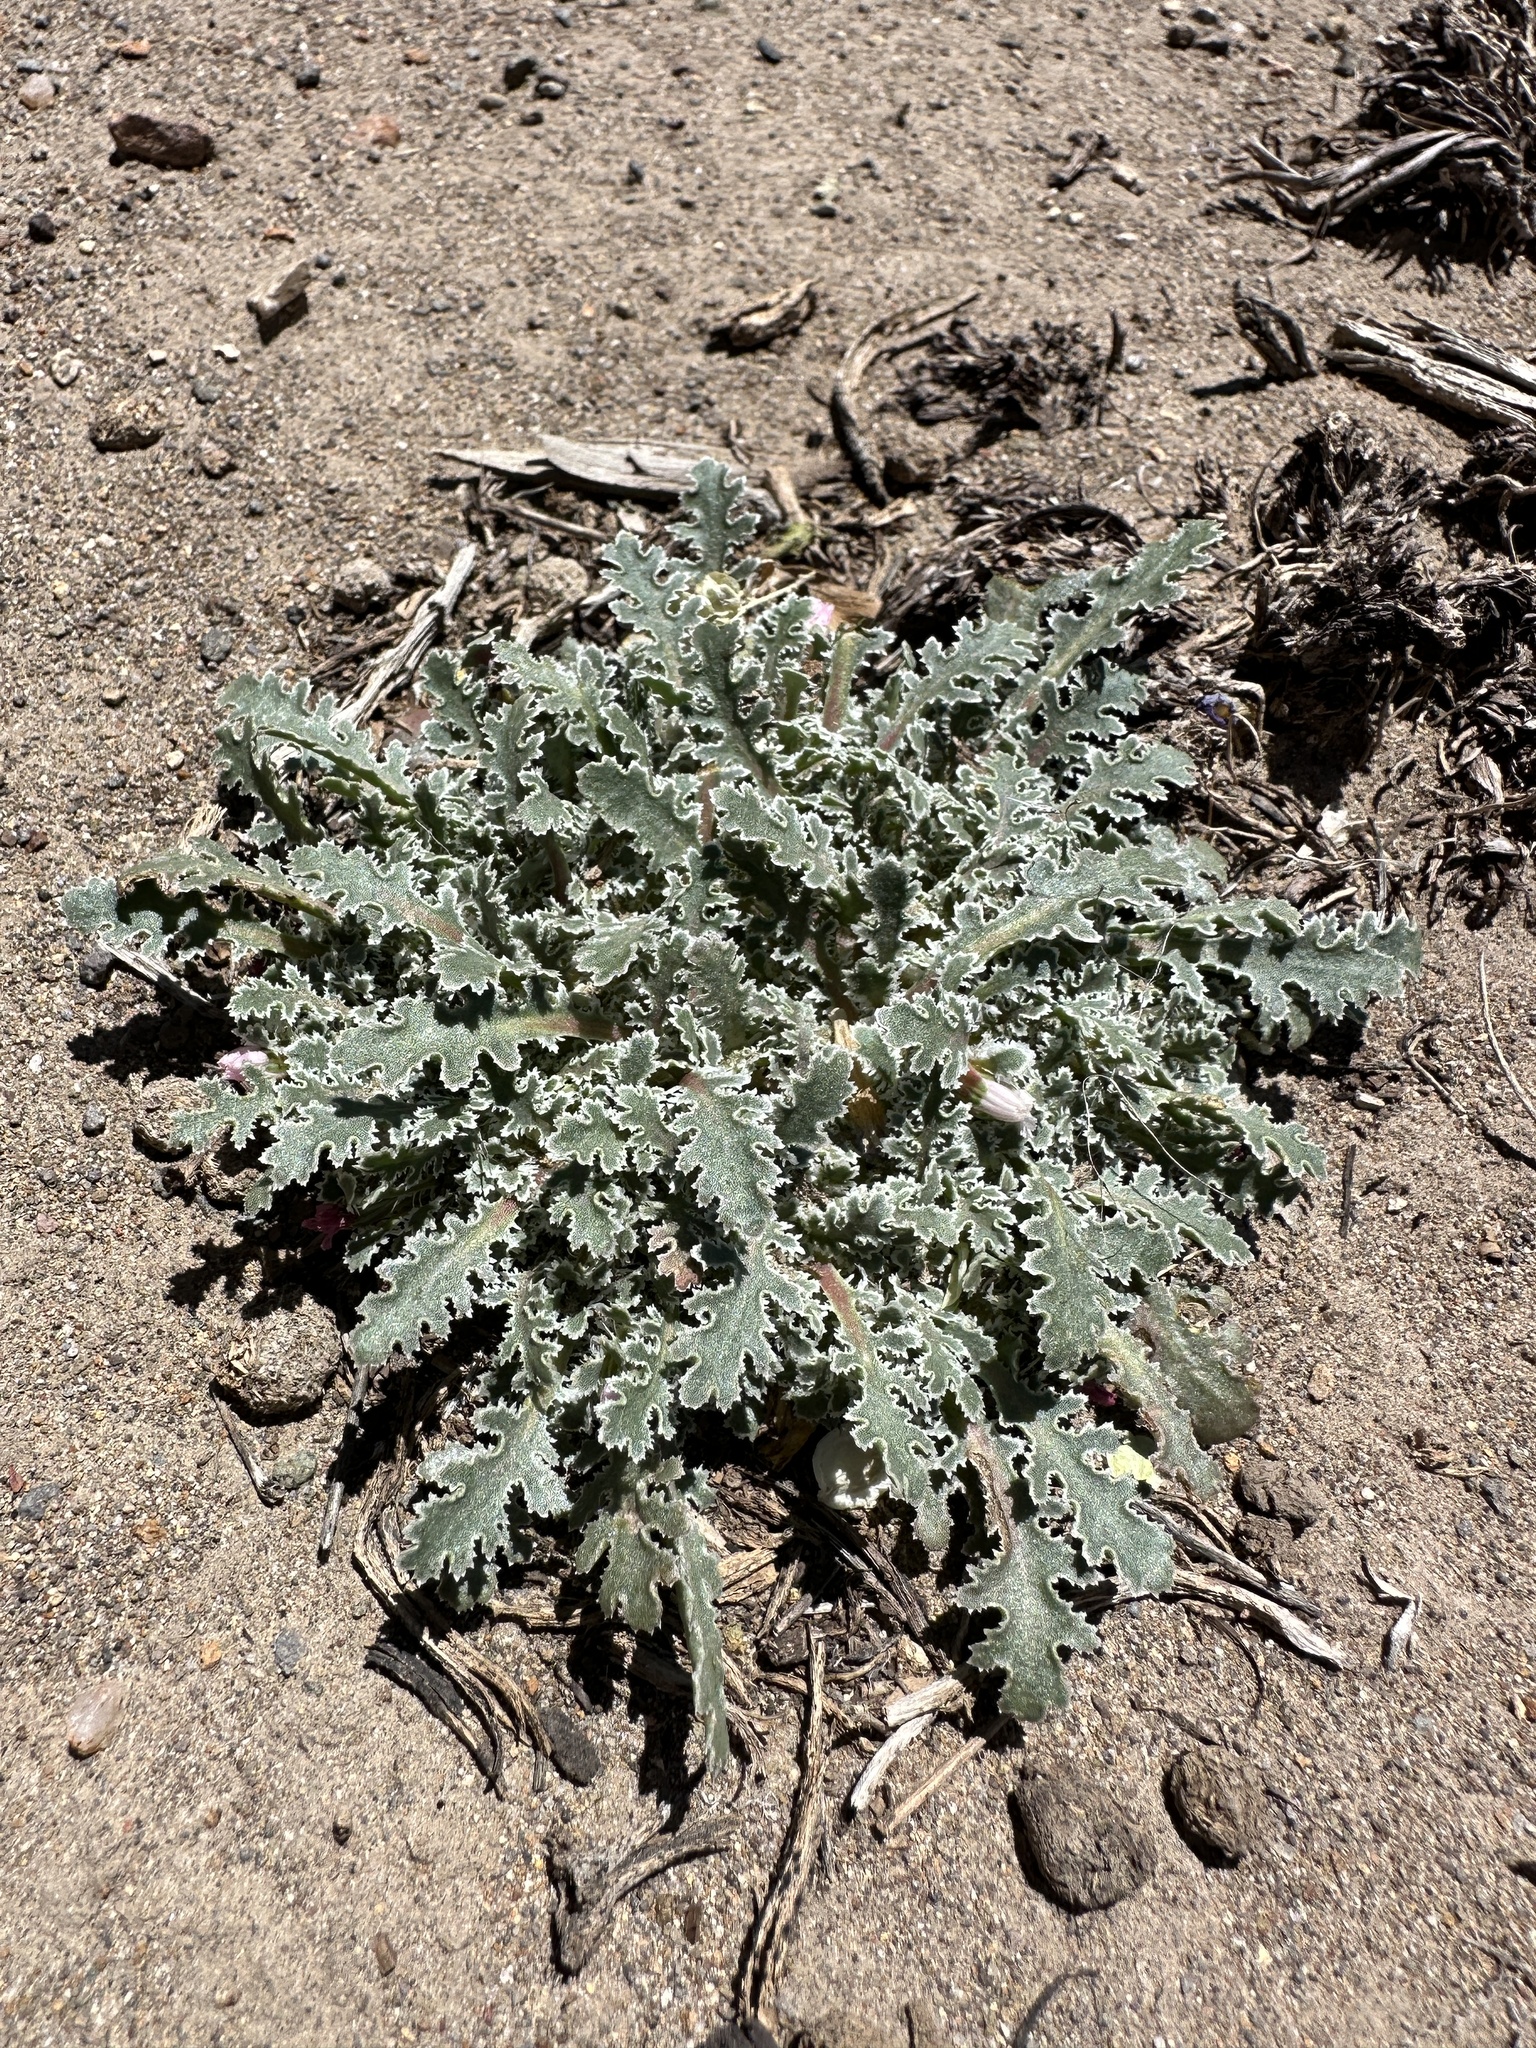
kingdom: Plantae
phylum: Tracheophyta
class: Magnoliopsida
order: Asterales
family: Asteraceae
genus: Glyptopleura
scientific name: Glyptopleura marginata
